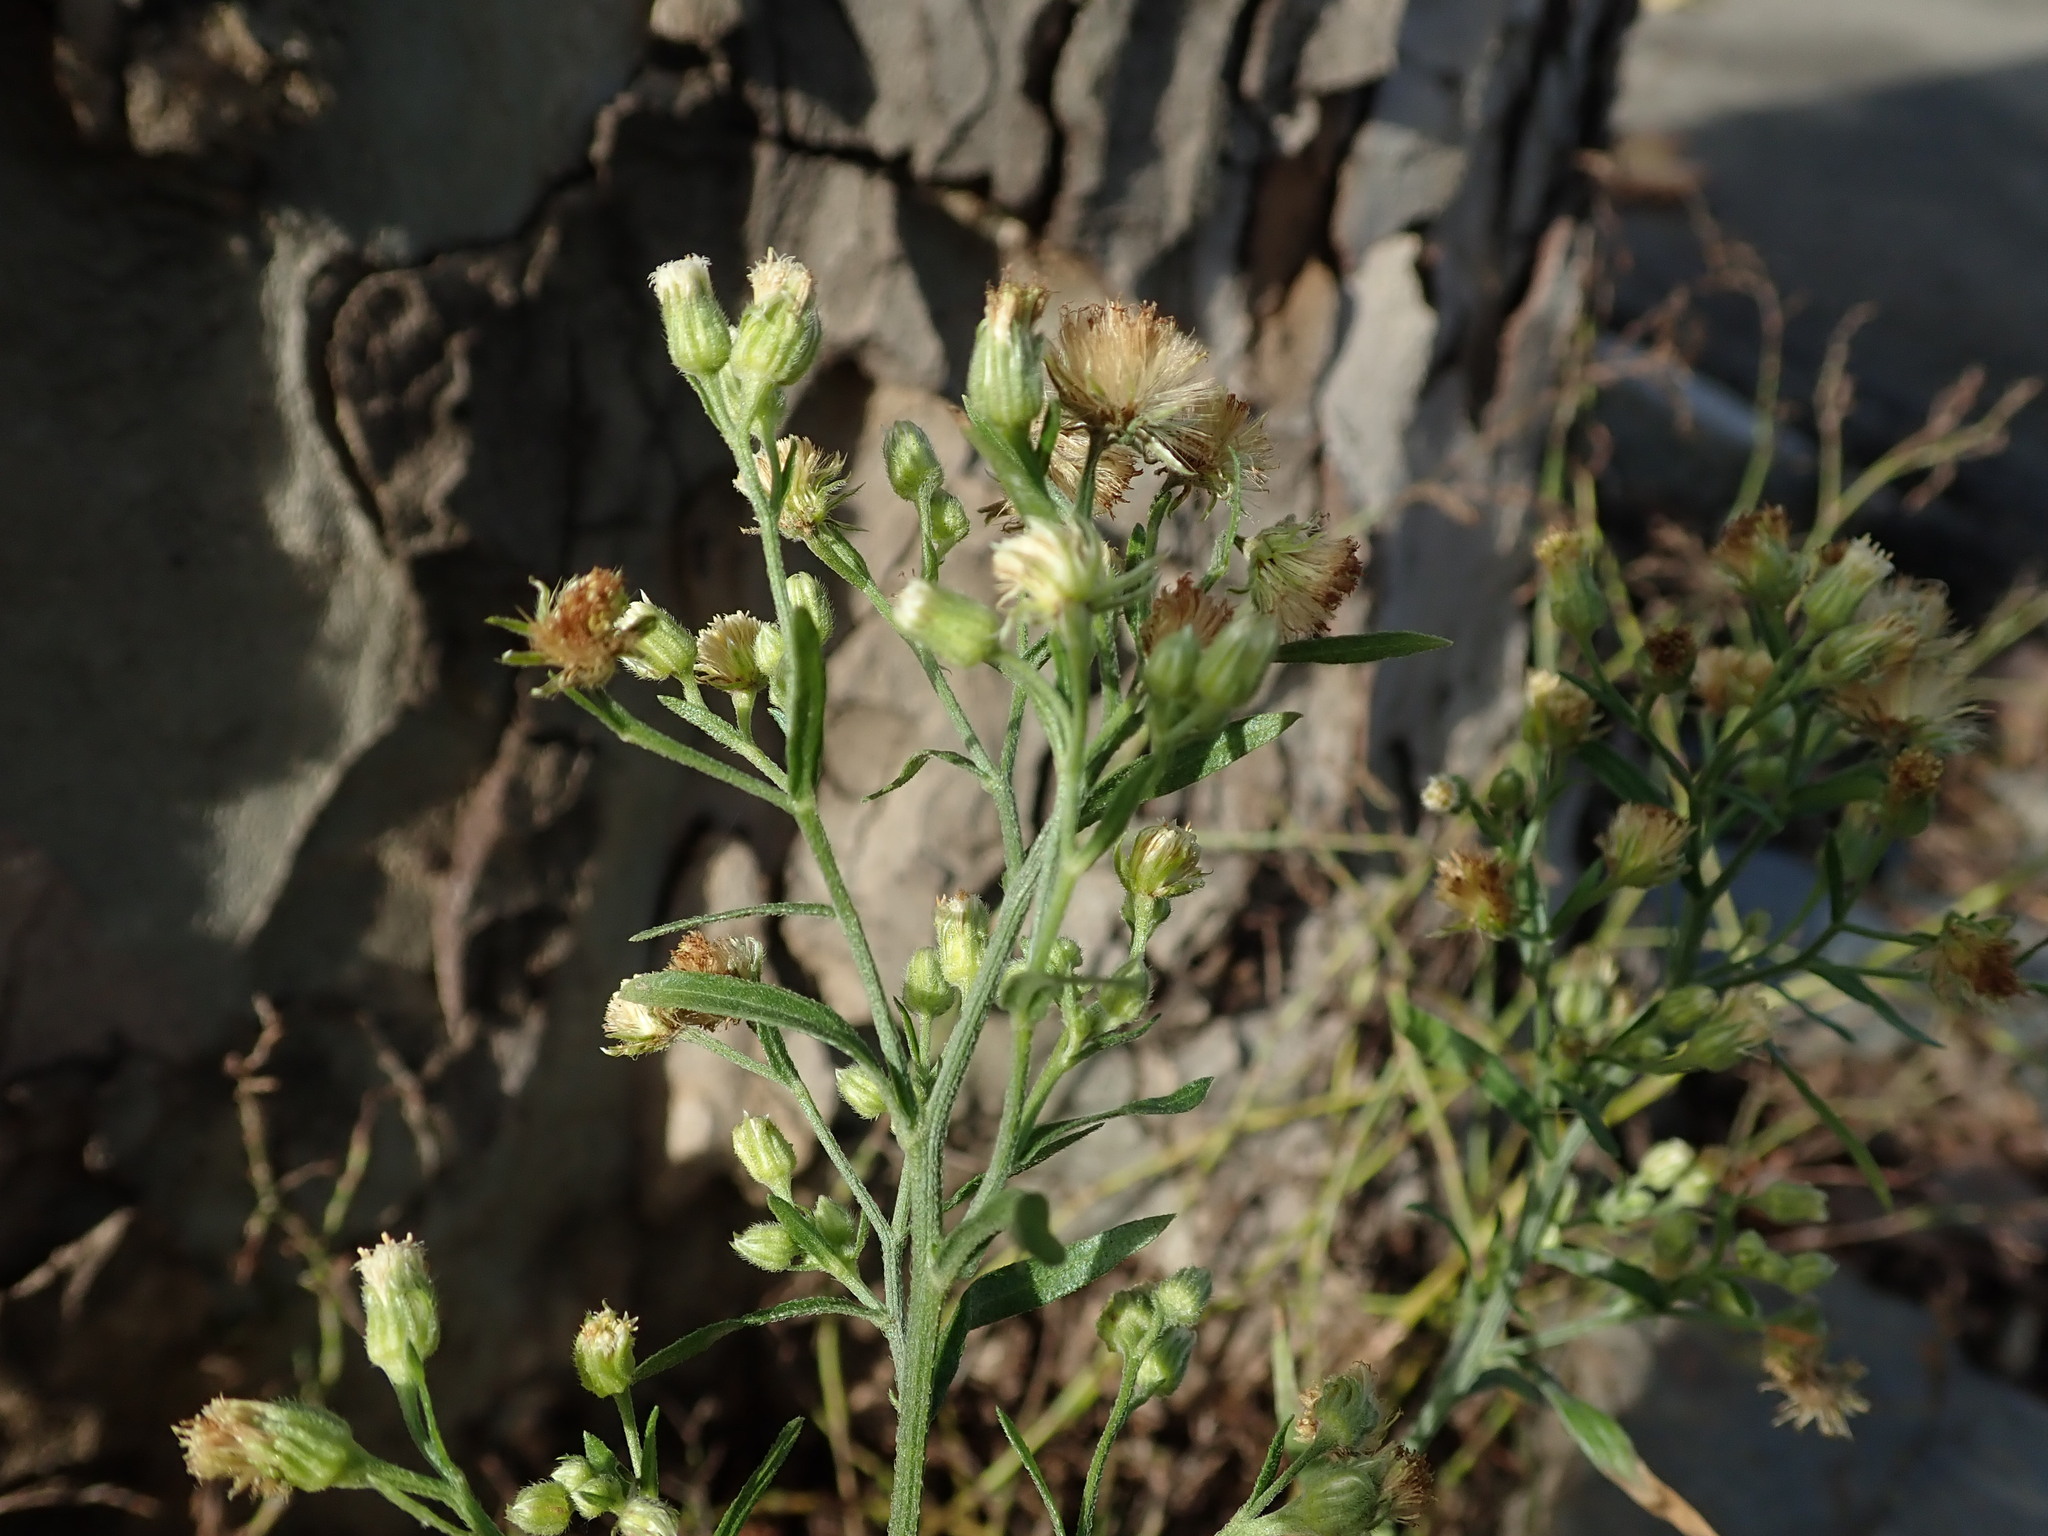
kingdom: Plantae
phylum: Tracheophyta
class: Magnoliopsida
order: Asterales
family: Asteraceae
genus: Erigeron
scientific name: Erigeron sumatrensis
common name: Daisy
